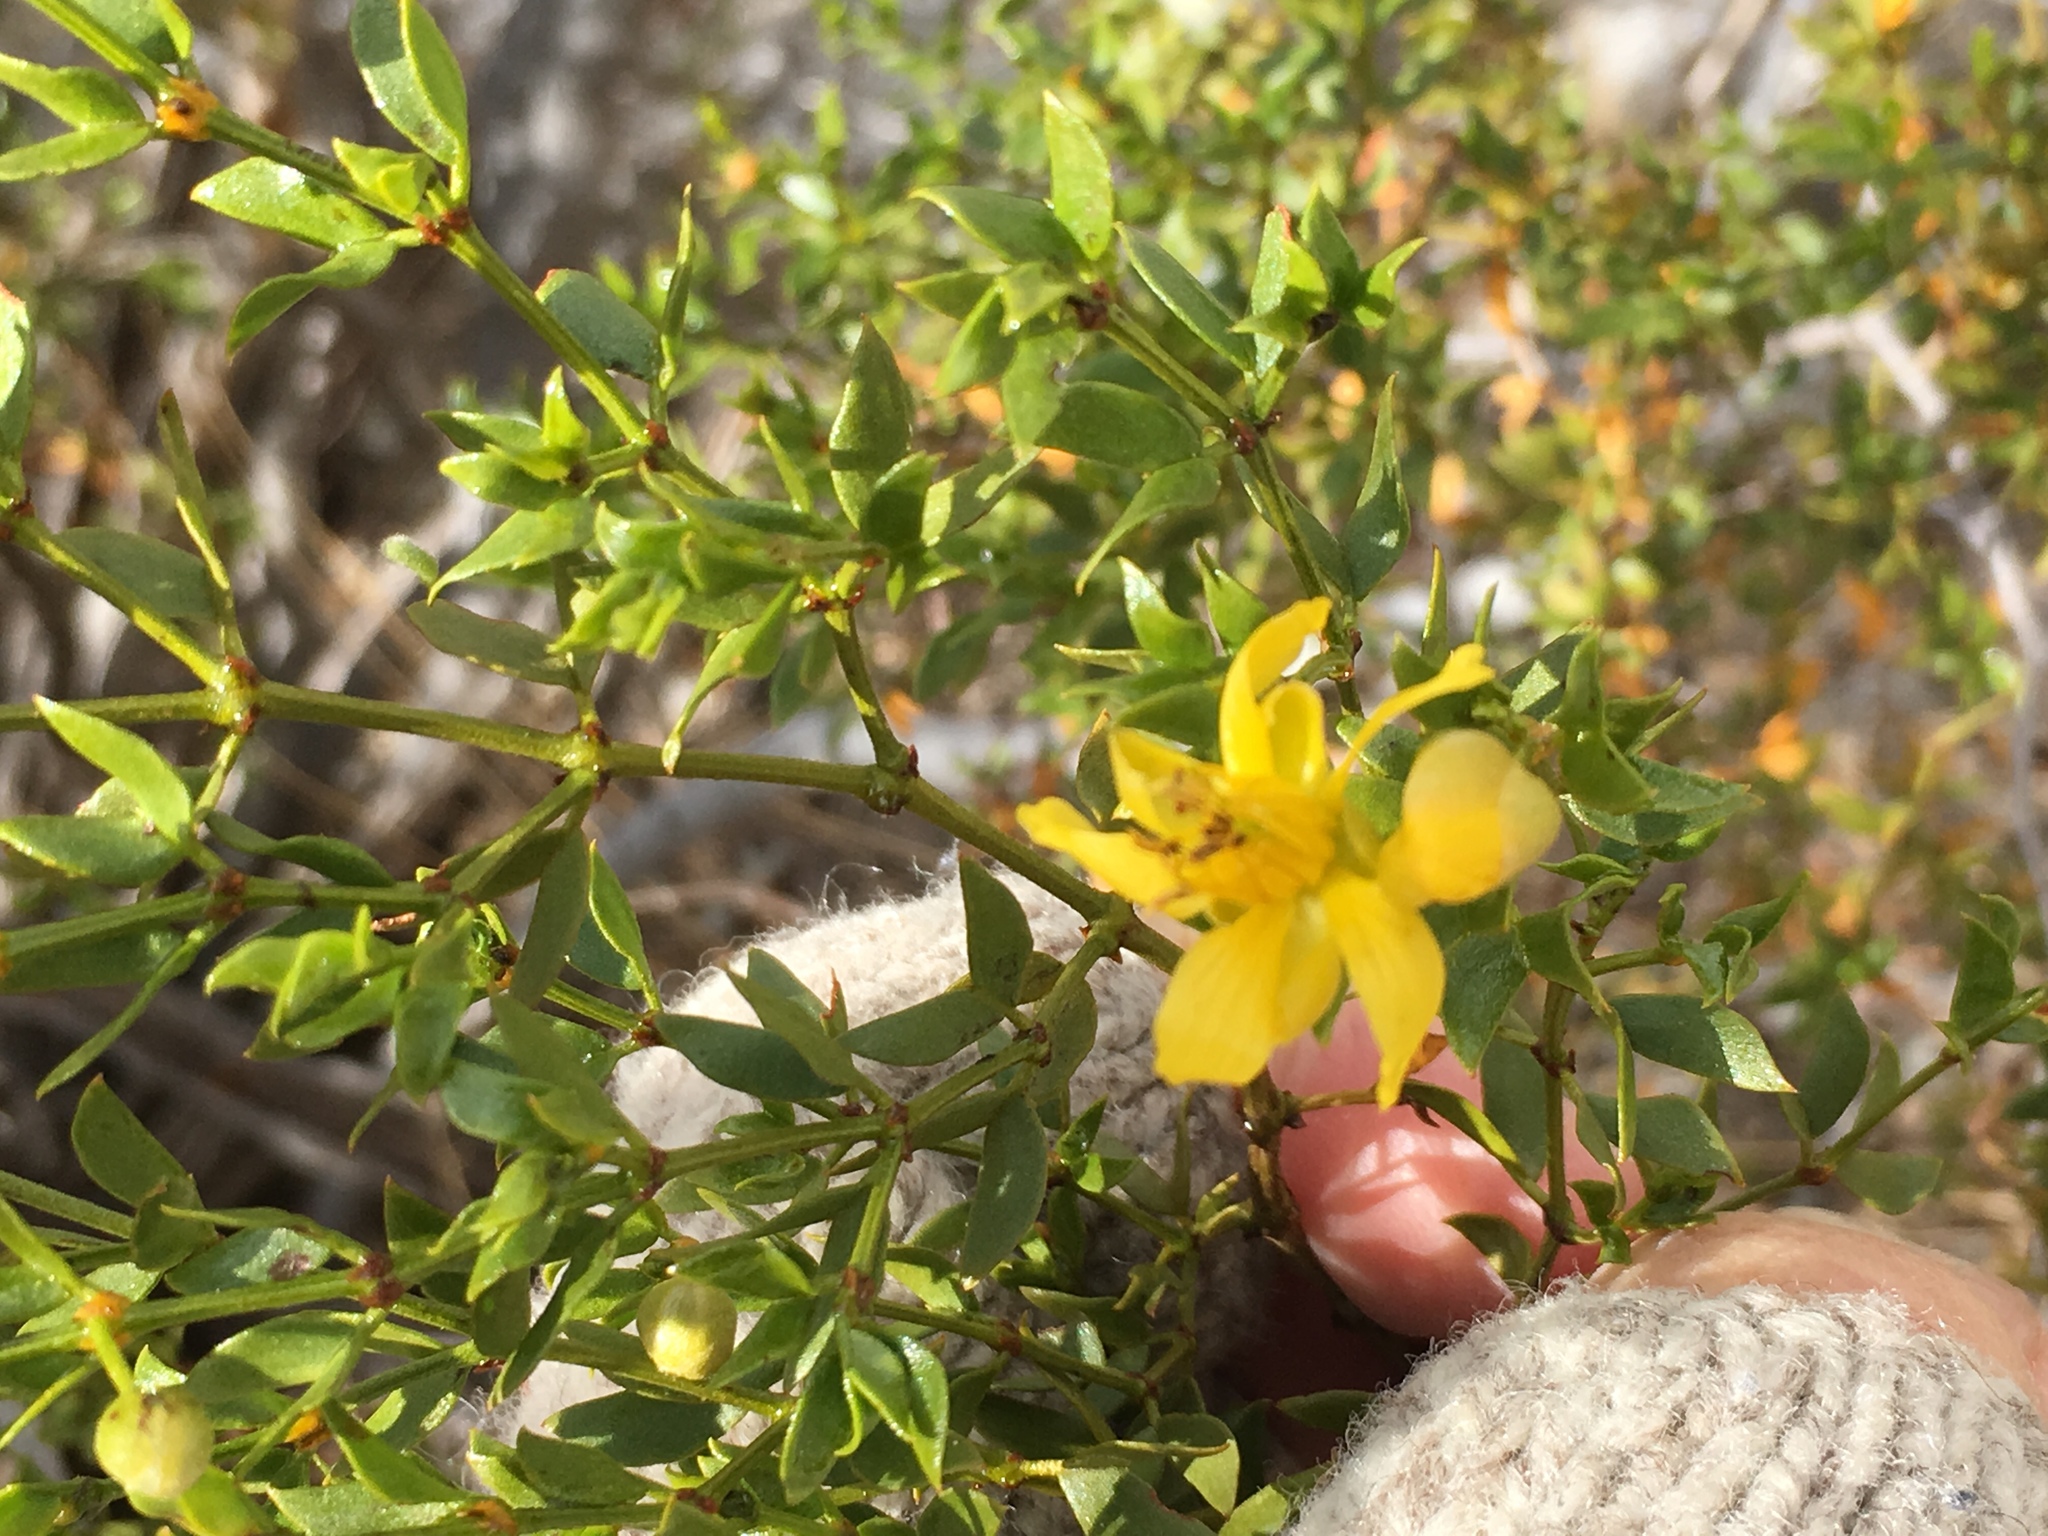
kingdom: Plantae
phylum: Tracheophyta
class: Magnoliopsida
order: Zygophyllales
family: Zygophyllaceae
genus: Larrea
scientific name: Larrea tridentata
